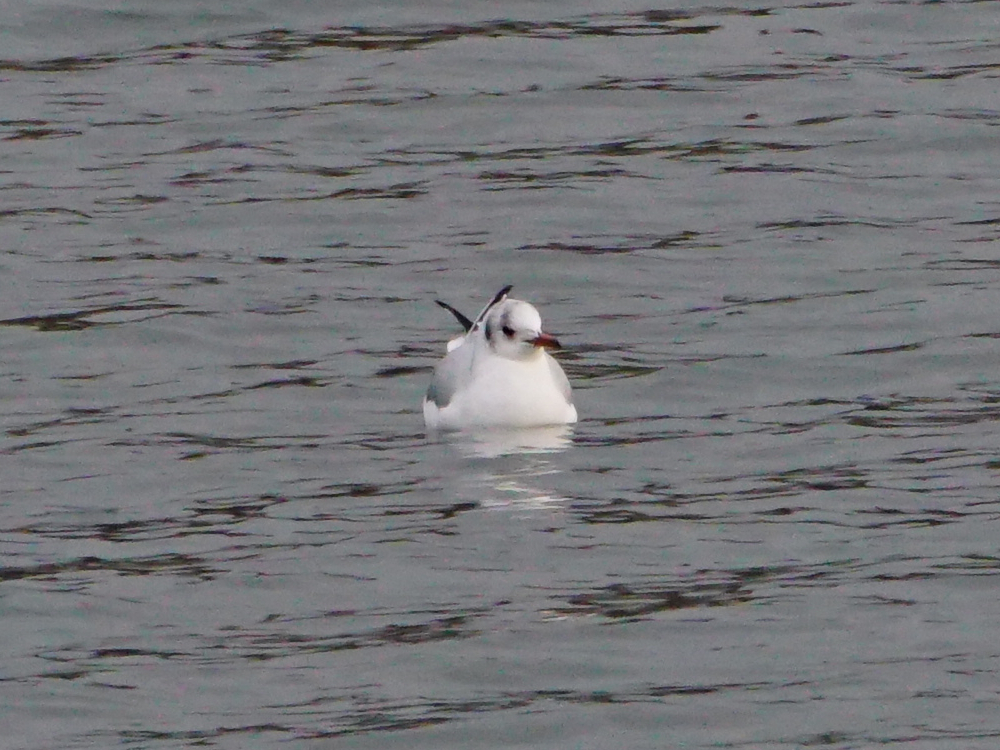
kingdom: Animalia
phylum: Chordata
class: Aves
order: Charadriiformes
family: Laridae
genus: Chroicocephalus
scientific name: Chroicocephalus ridibundus
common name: Black-headed gull
